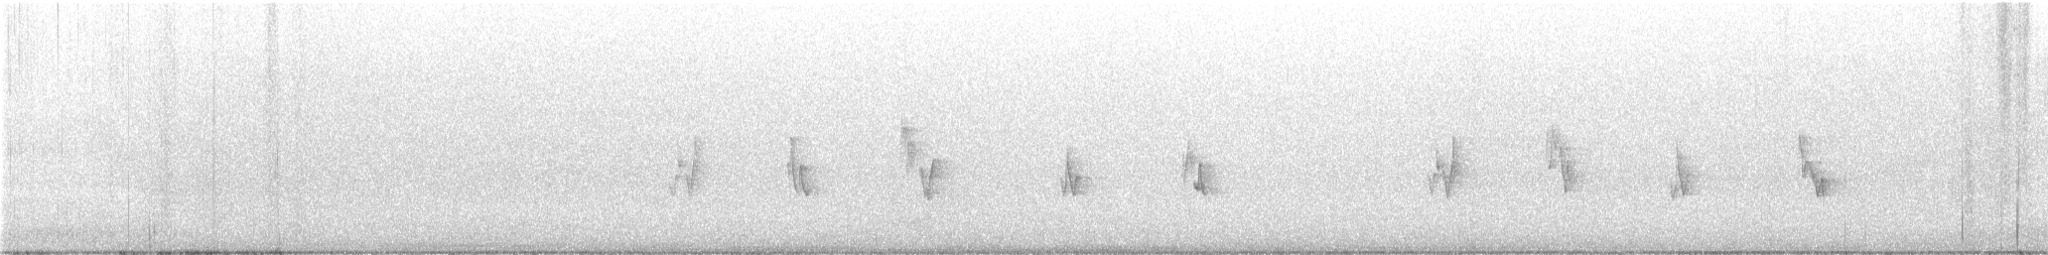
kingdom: Animalia
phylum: Chordata
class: Aves
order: Passeriformes
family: Vireonidae
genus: Vireo
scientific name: Vireo olivaceus
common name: Red-eyed vireo
